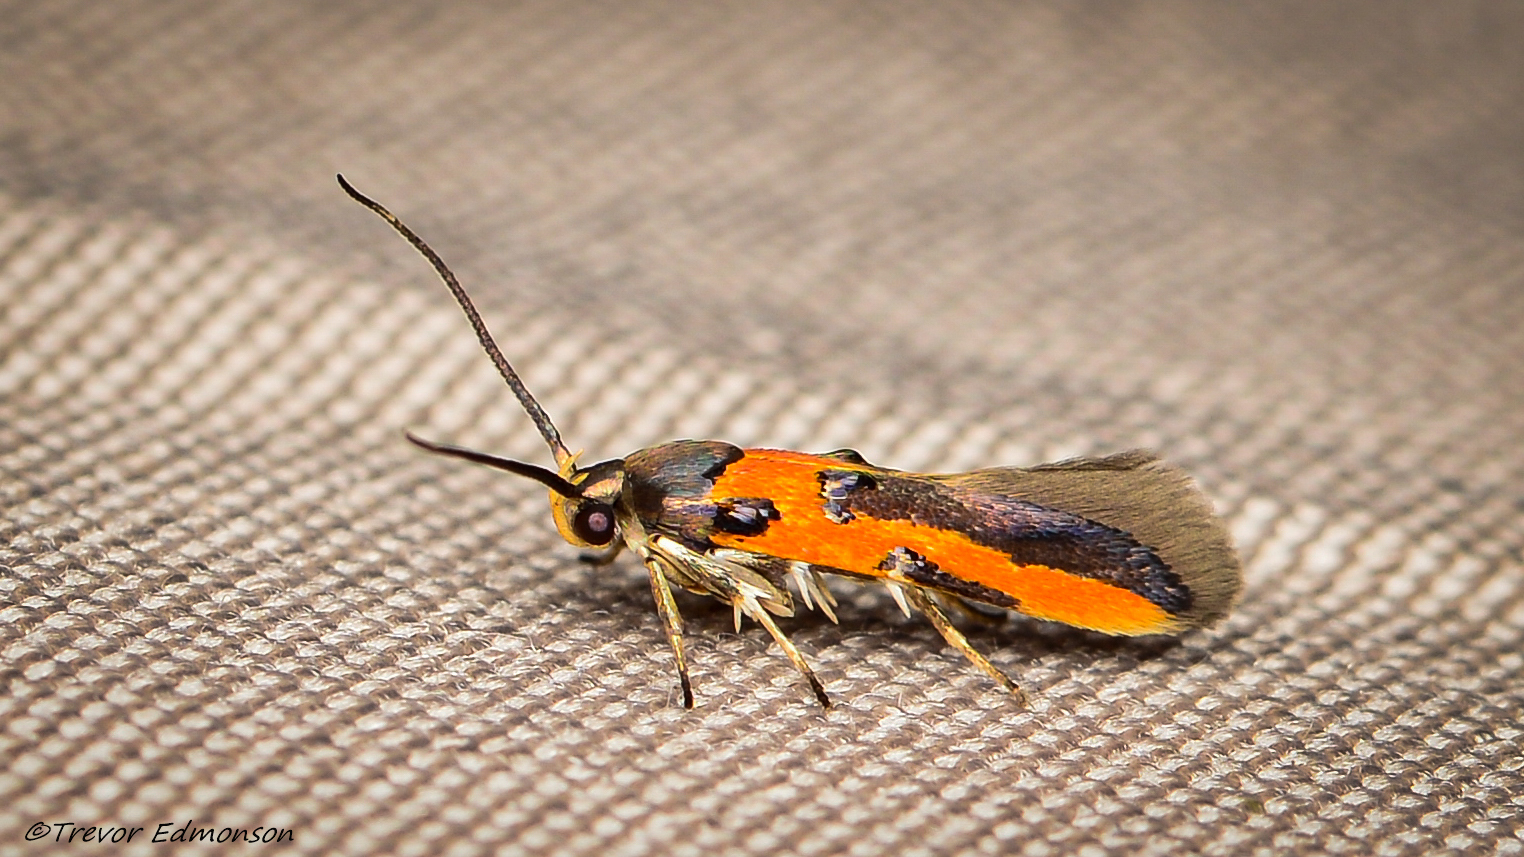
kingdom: Animalia
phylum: Arthropoda
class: Insecta
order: Lepidoptera
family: Cosmopterigidae
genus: Euclemensia
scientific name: Euclemensia bassettella
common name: Kermes scale moth
